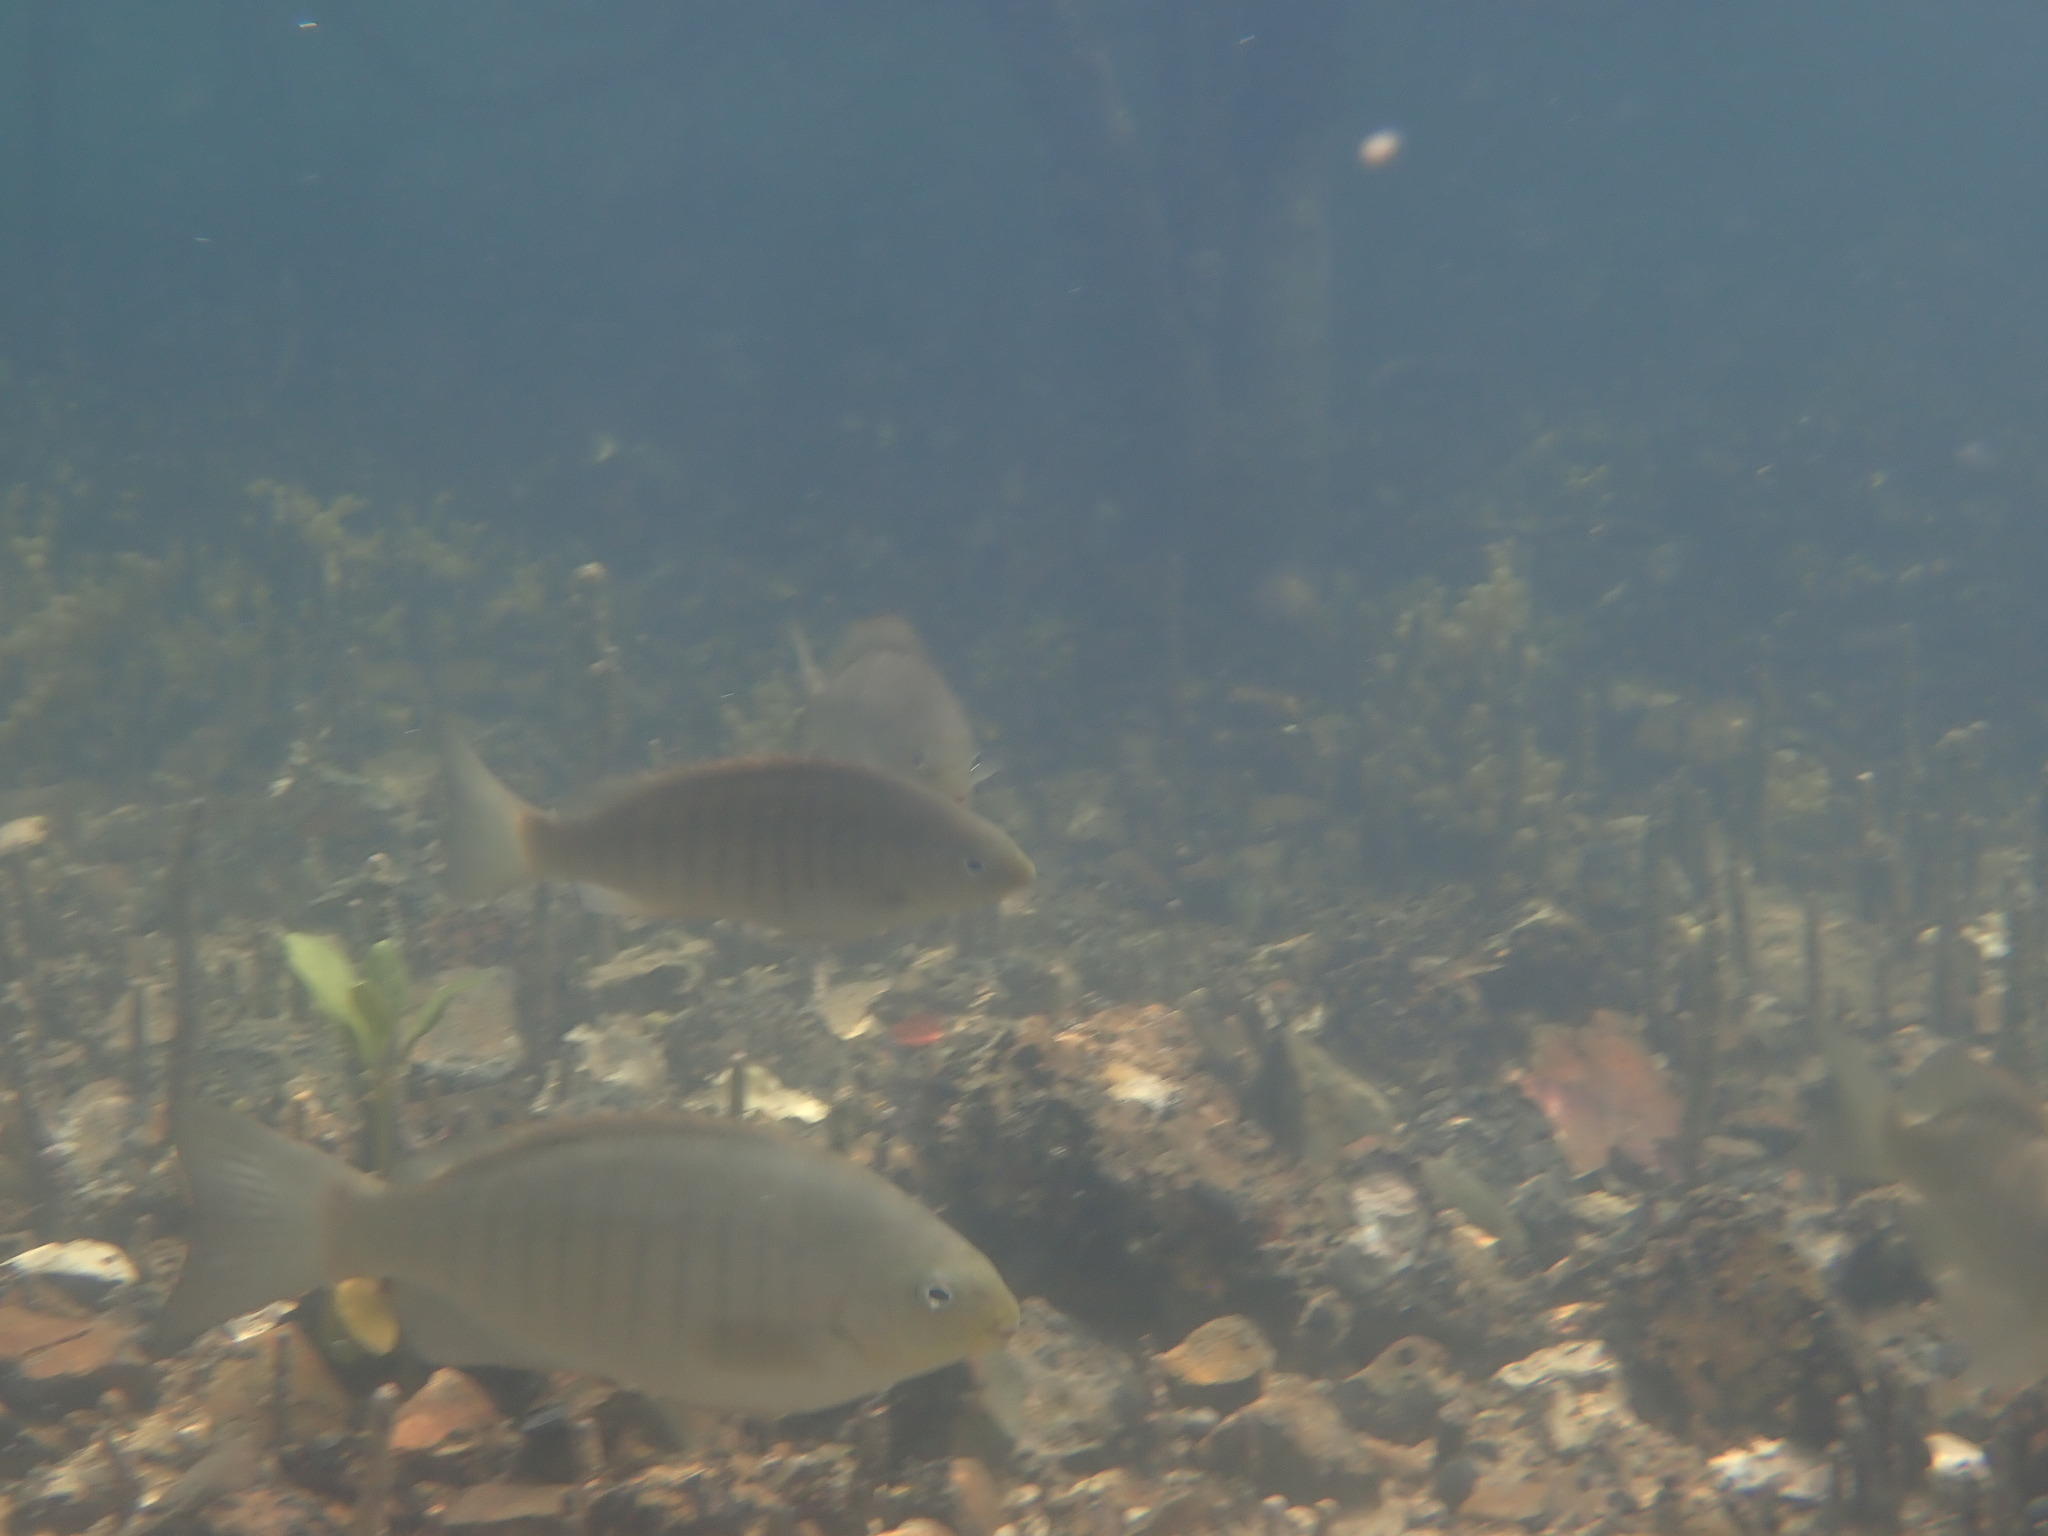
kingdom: Animalia
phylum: Chordata
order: Perciformes
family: Kyphosidae
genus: Girella
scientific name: Girella tricuspidata
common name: Parore
